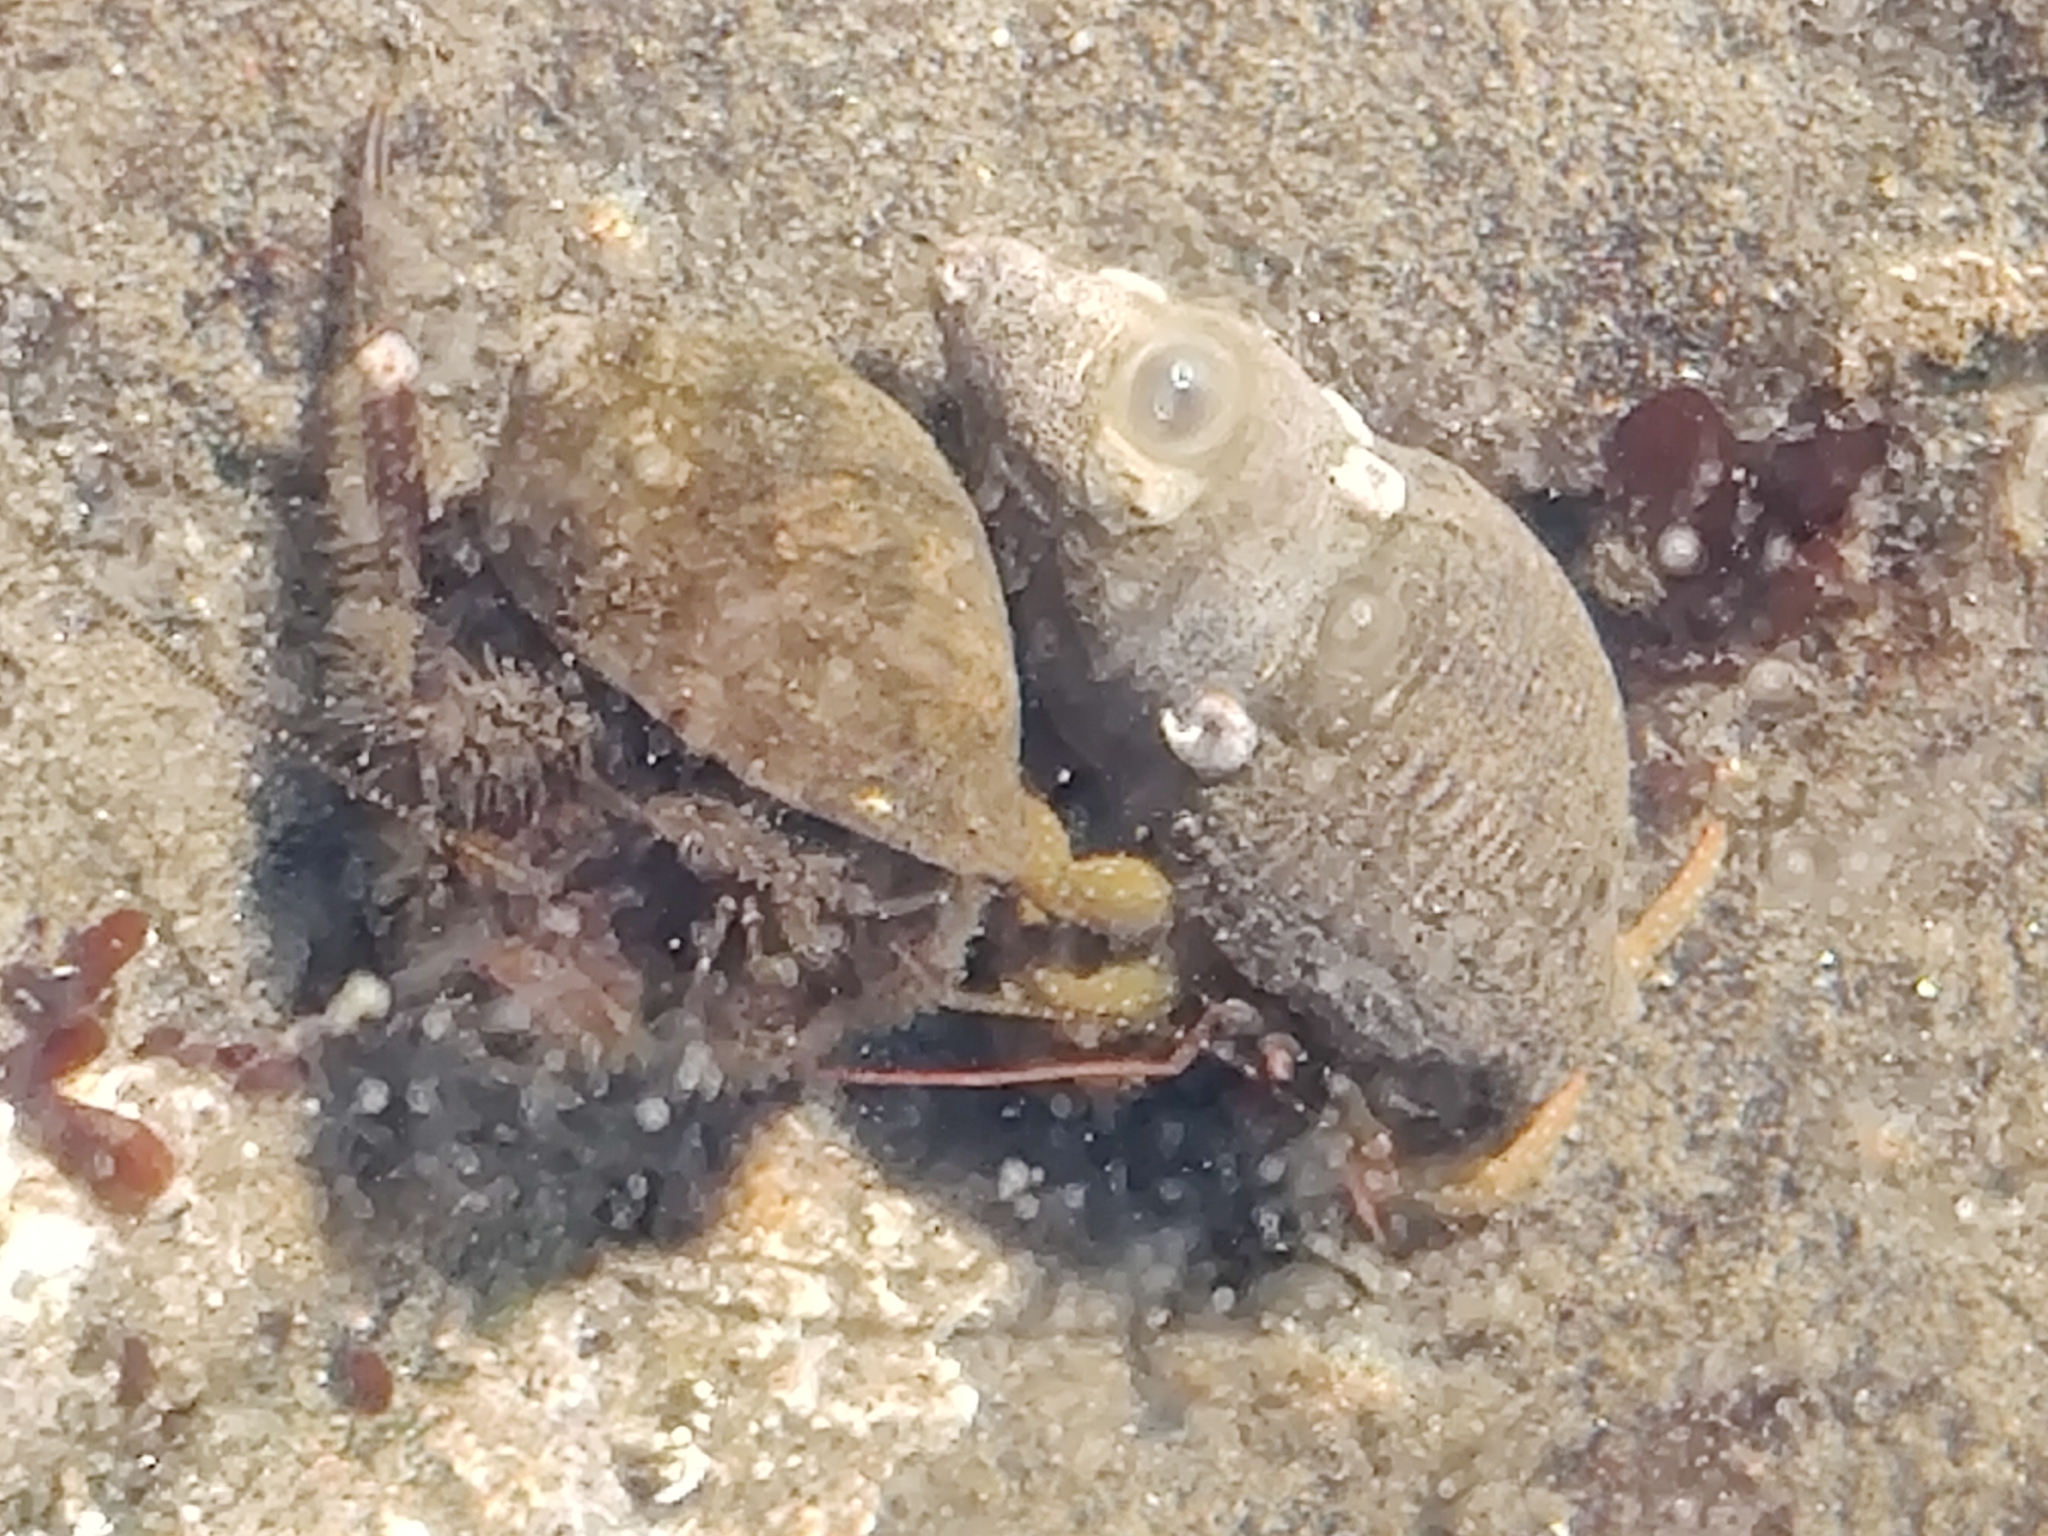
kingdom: Animalia
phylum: Arthropoda
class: Malacostraca
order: Decapoda
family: Paguridae
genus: Pagurus
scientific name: Pagurus granosimanus
